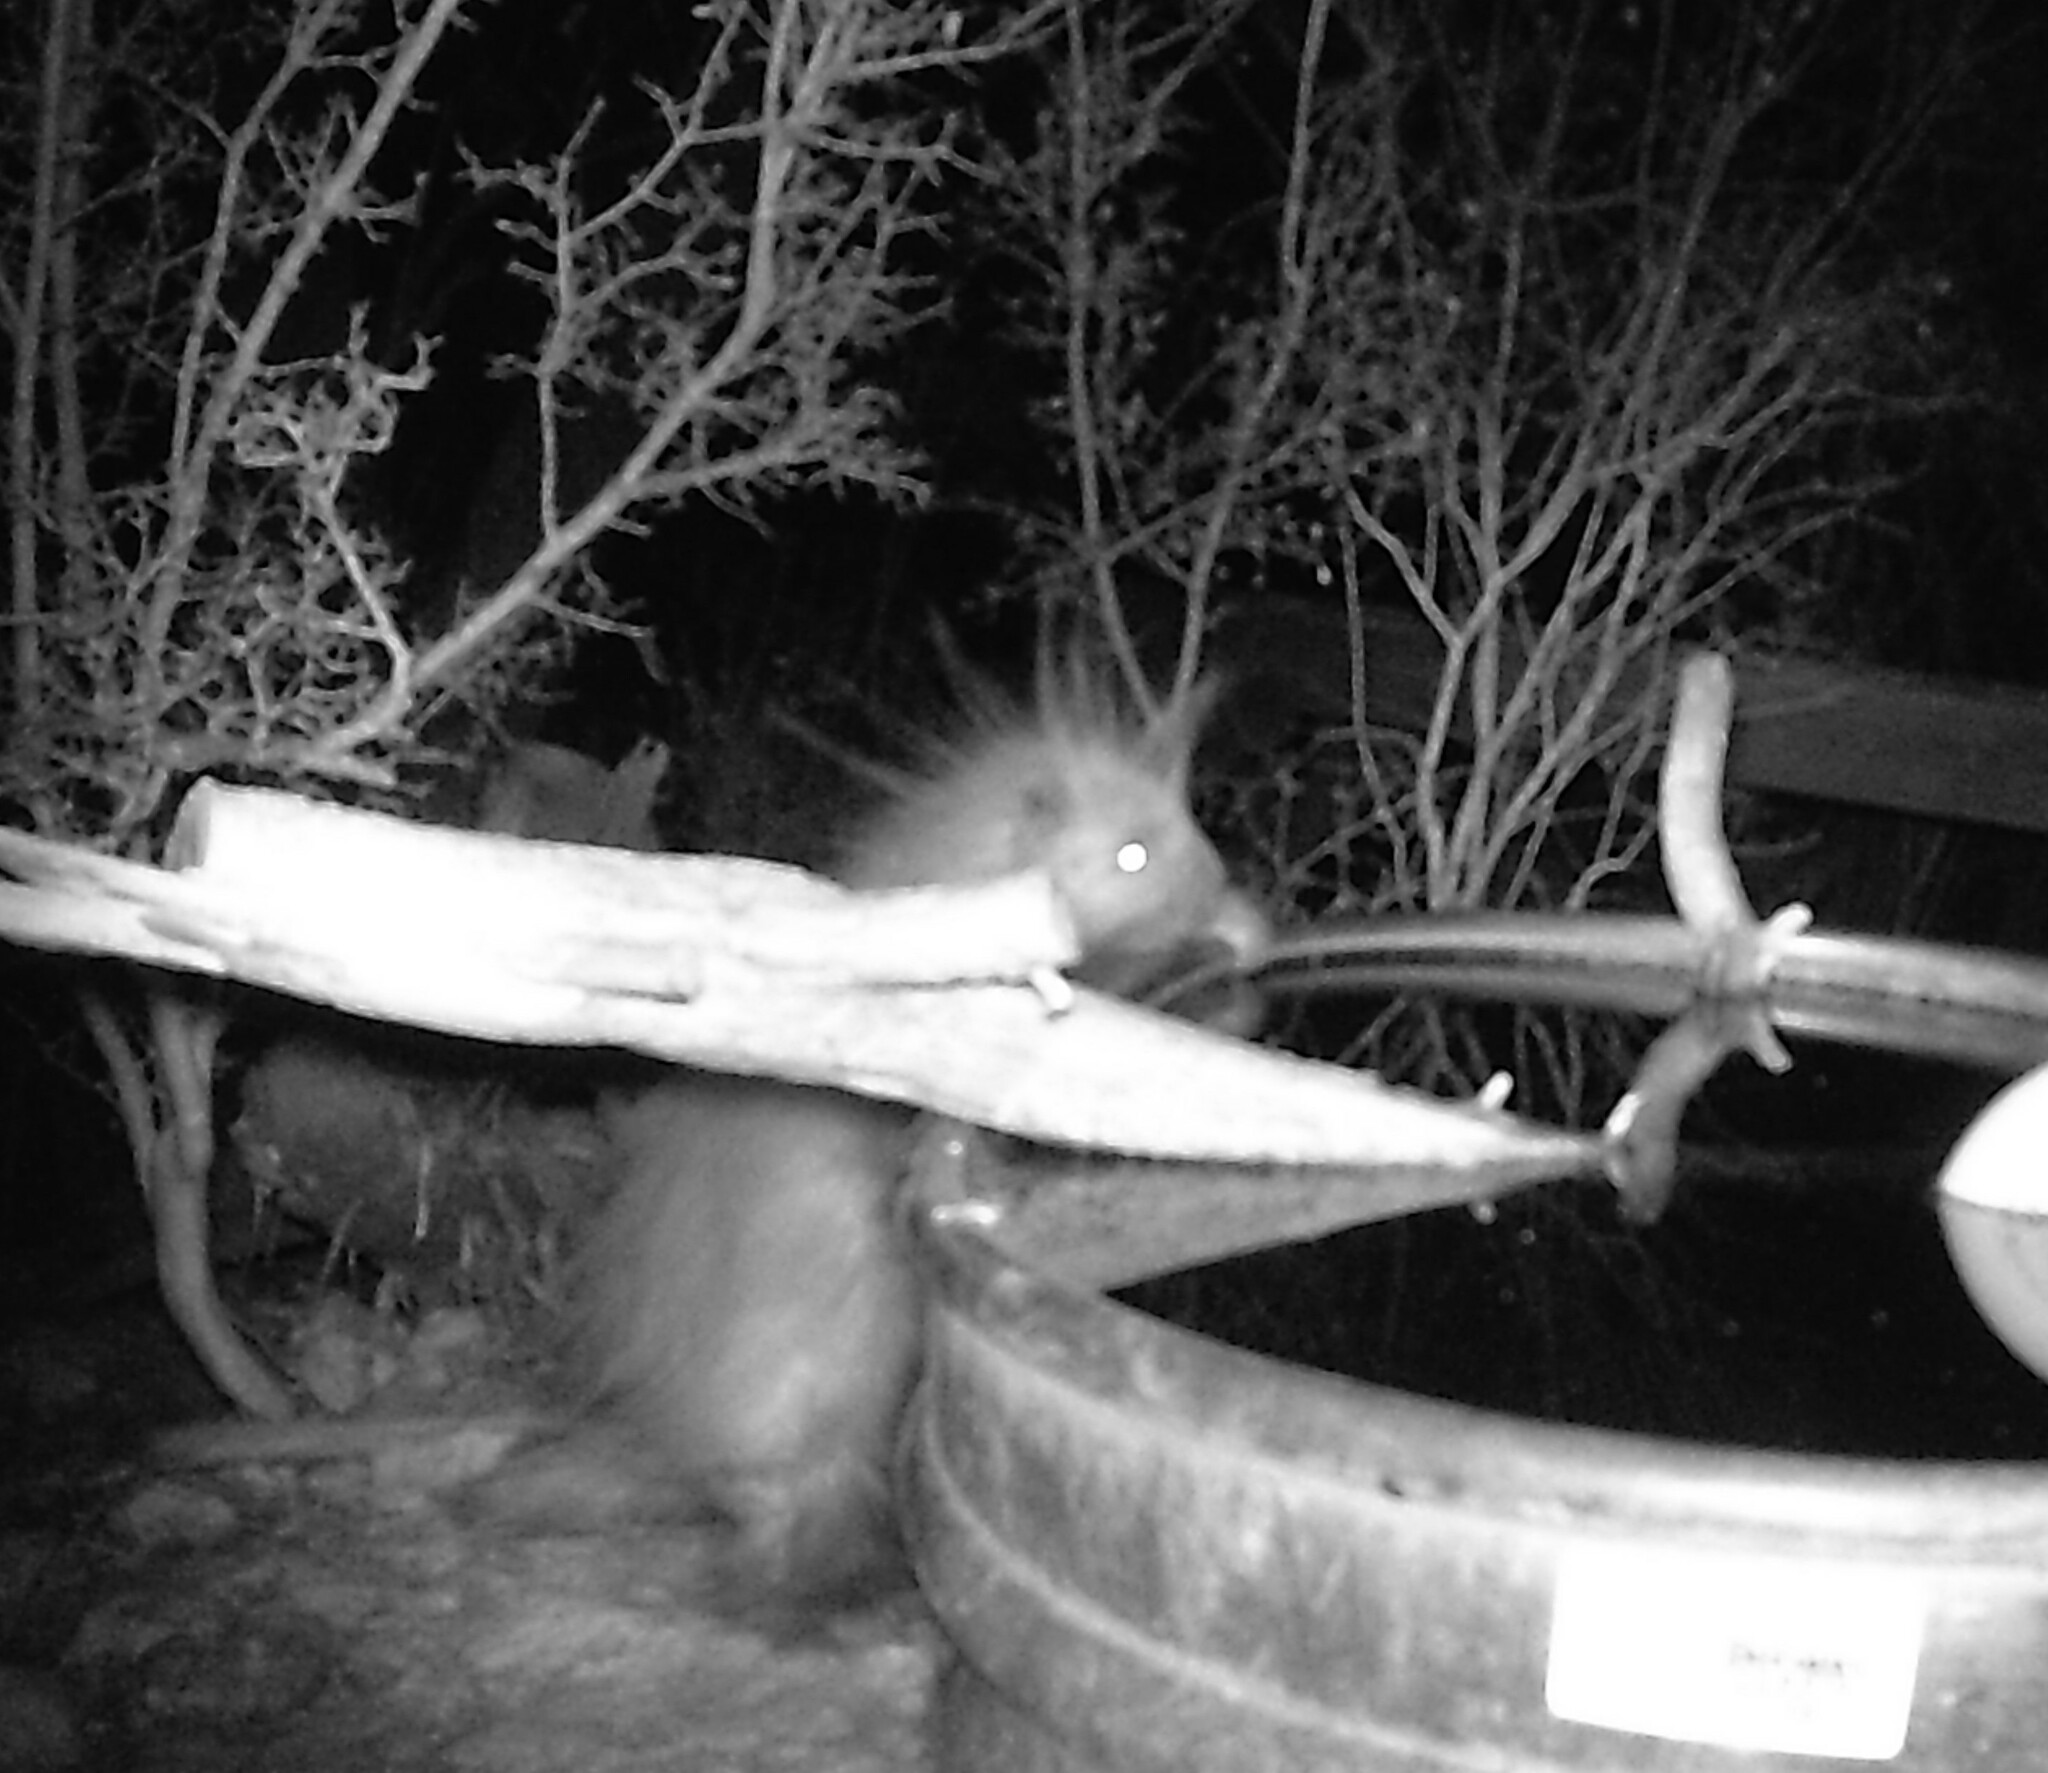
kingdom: Animalia
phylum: Chordata
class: Mammalia
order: Rodentia
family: Erethizontidae
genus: Erethizon
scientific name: Erethizon dorsatus
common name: North american porcupine
